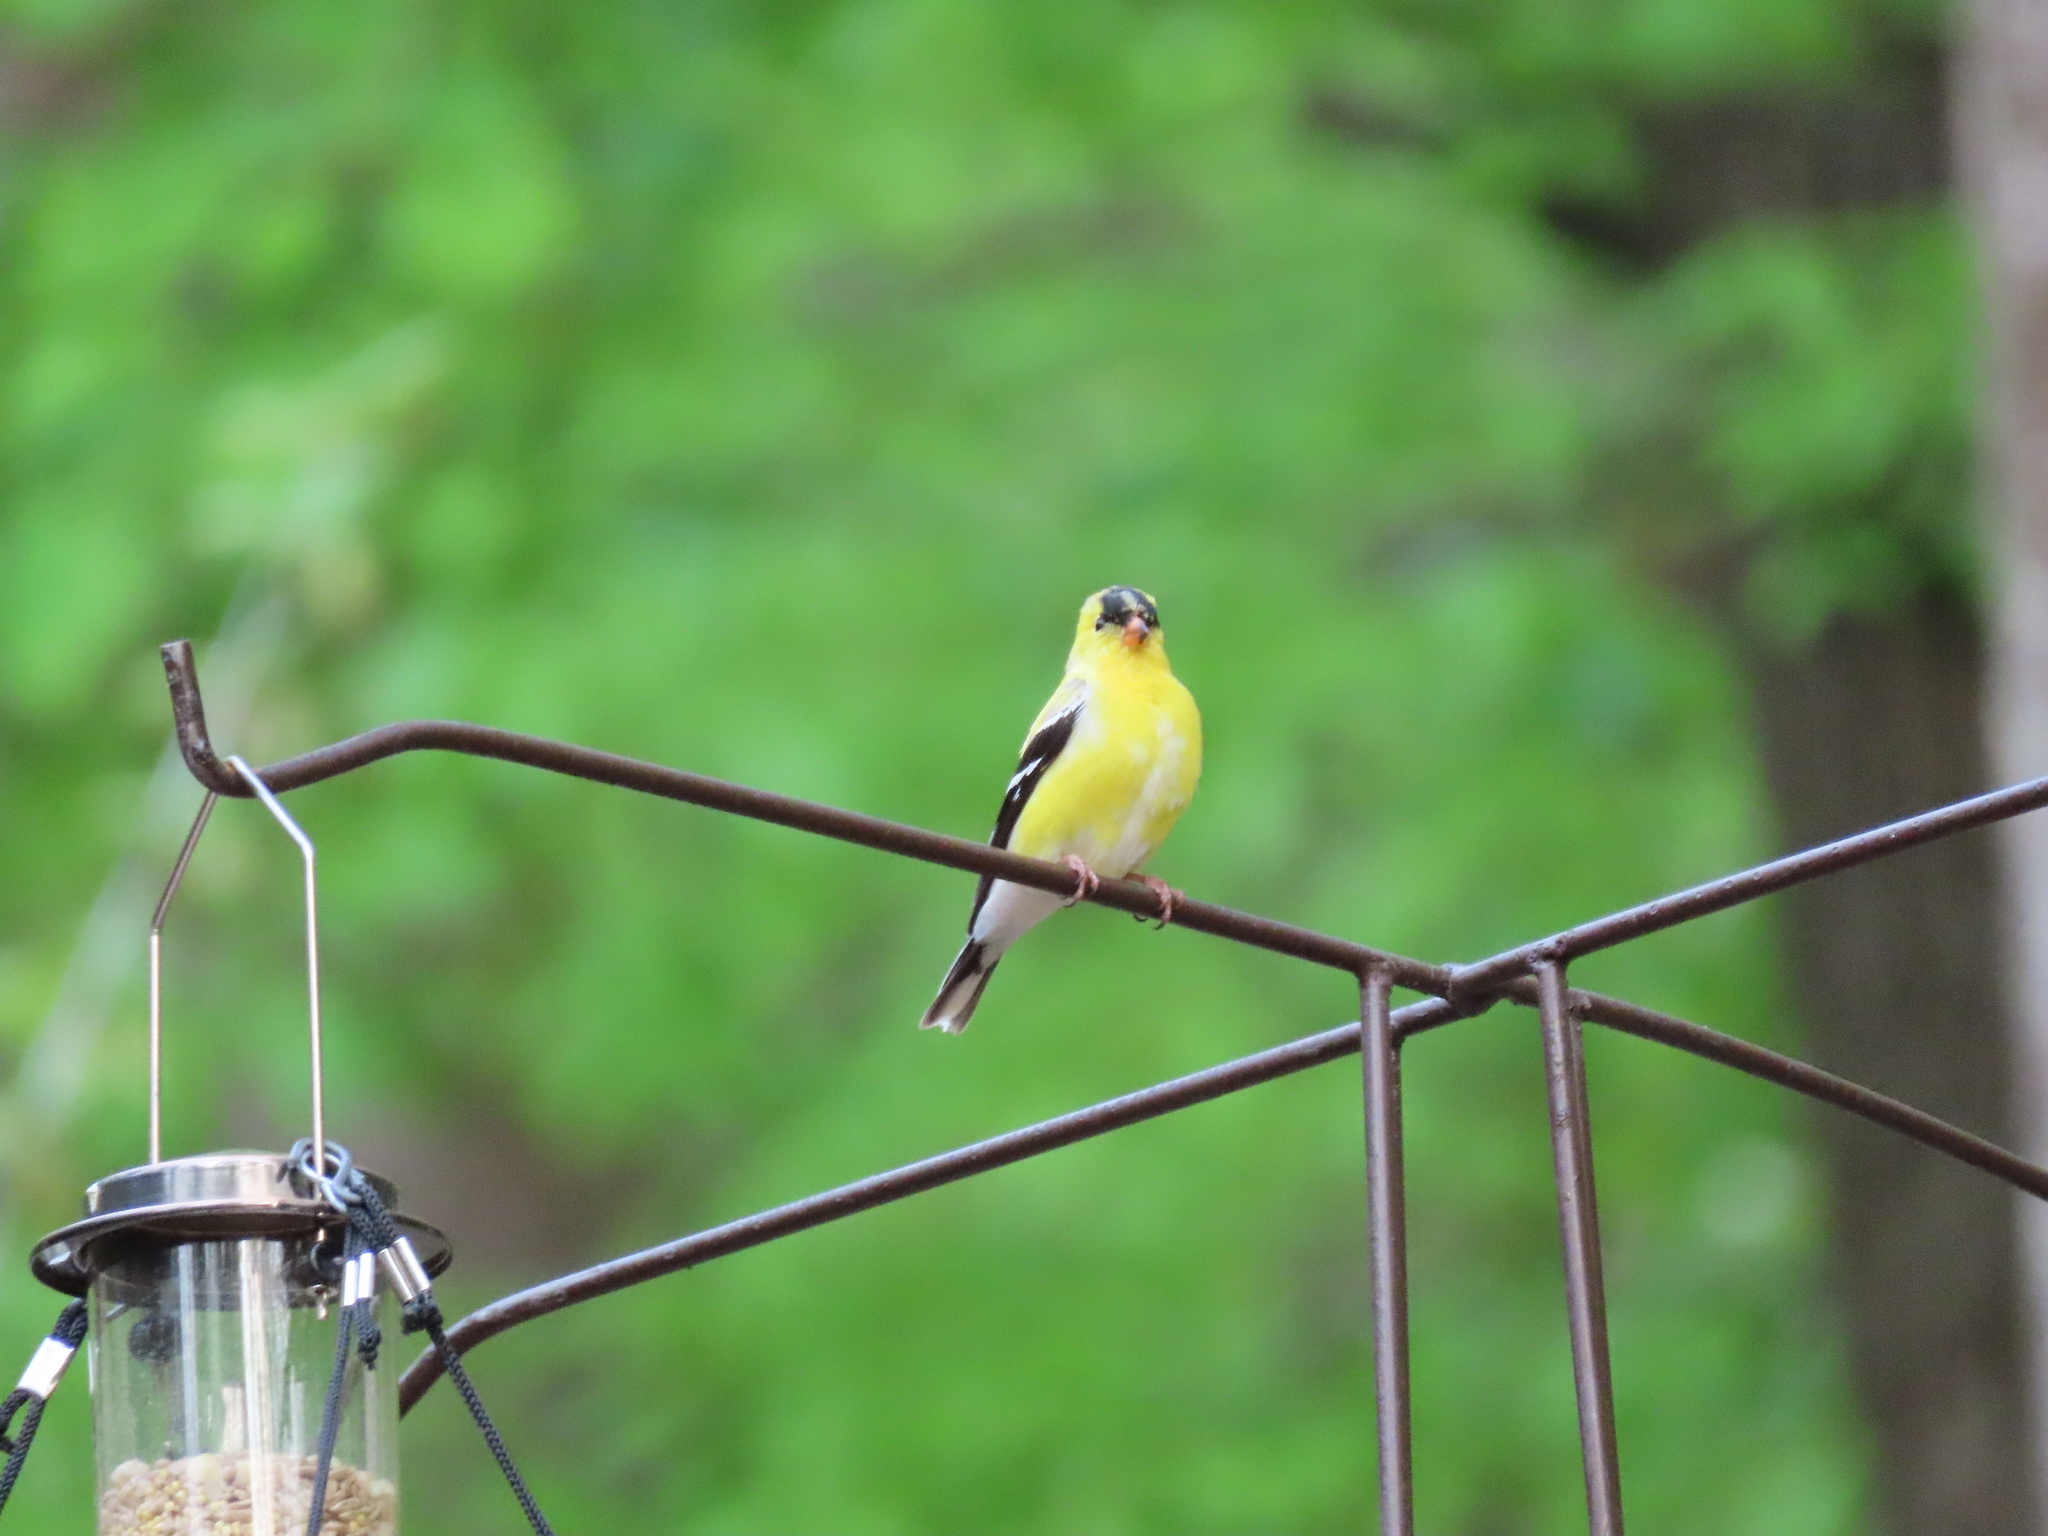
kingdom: Animalia
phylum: Chordata
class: Aves
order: Passeriformes
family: Fringillidae
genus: Spinus
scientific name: Spinus tristis
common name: American goldfinch
